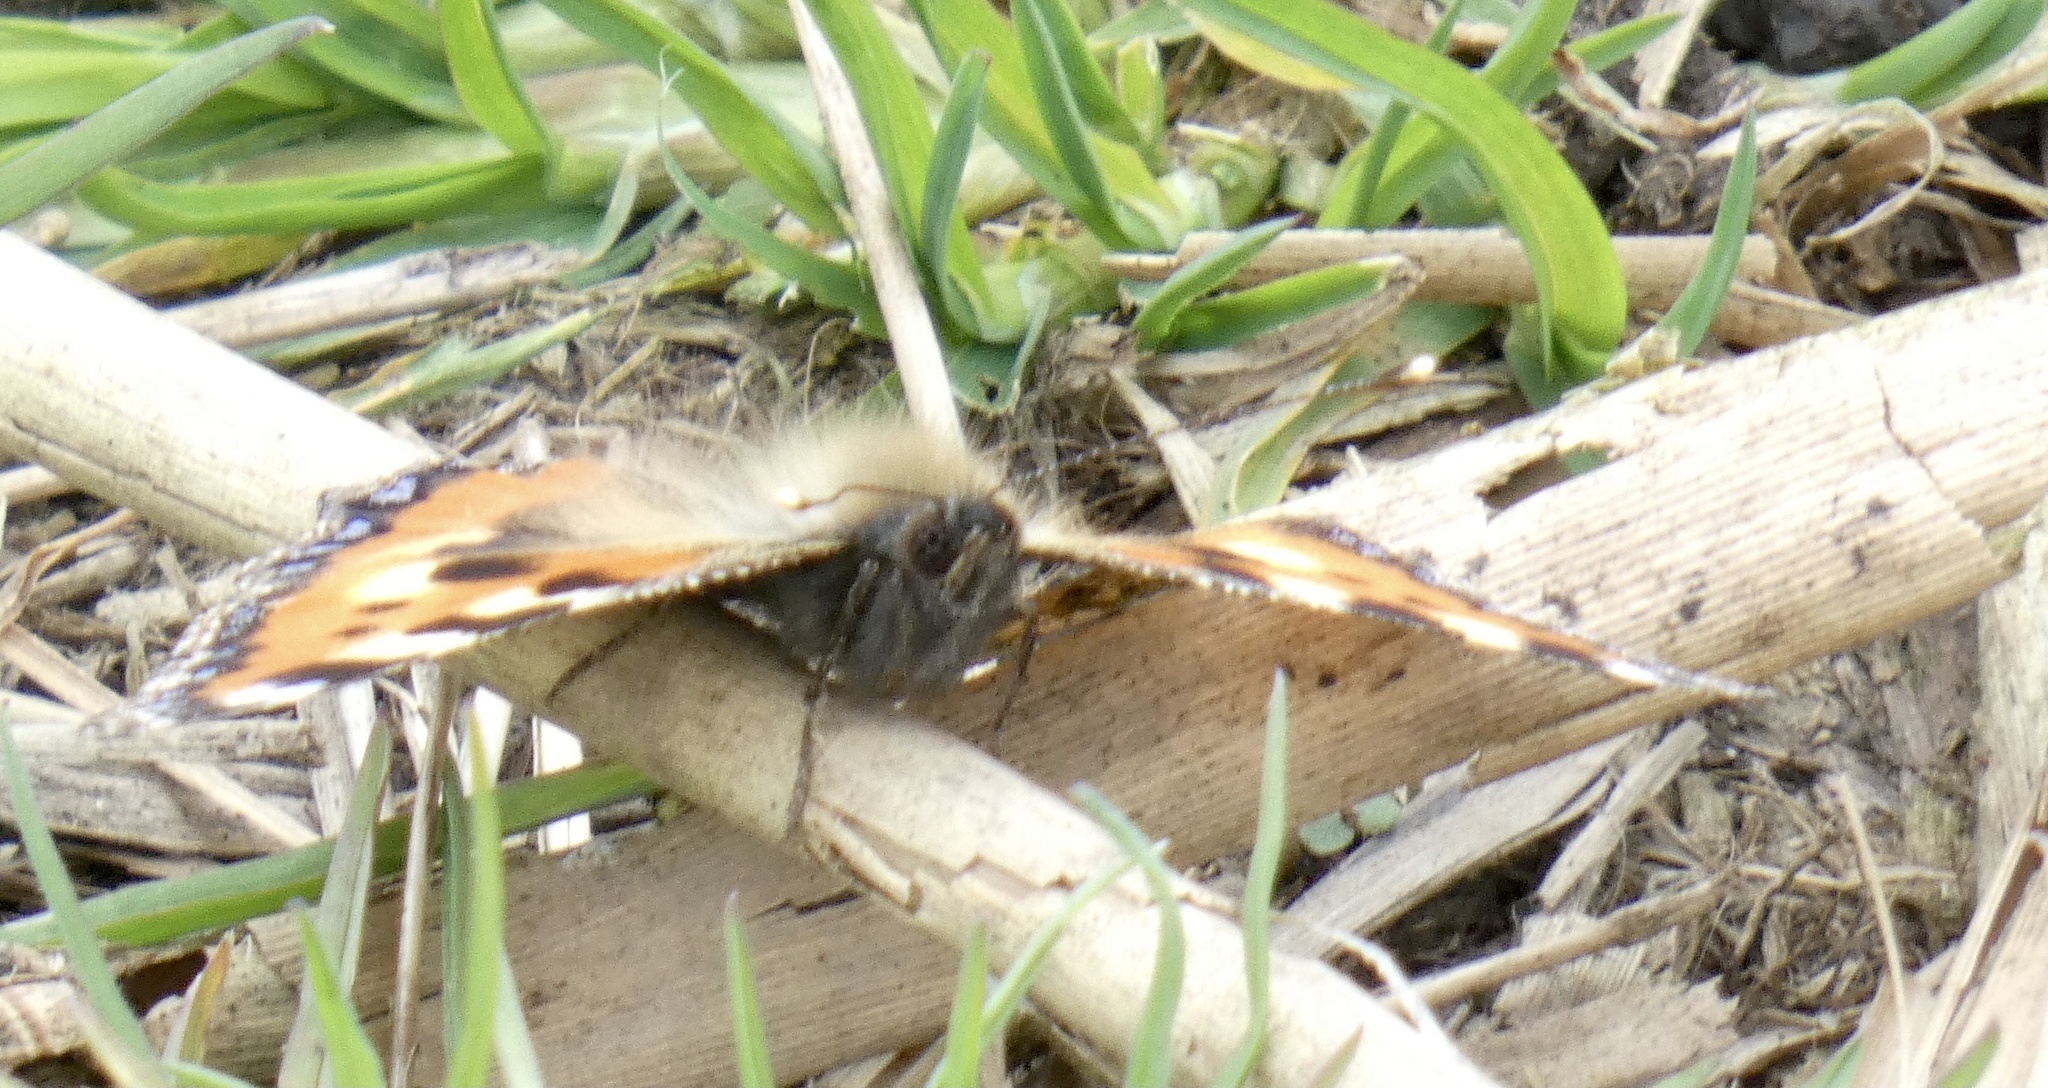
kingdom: Animalia
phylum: Arthropoda
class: Insecta
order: Lepidoptera
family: Nymphalidae
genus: Aglais
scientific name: Aglais urticae
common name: Small tortoiseshell
